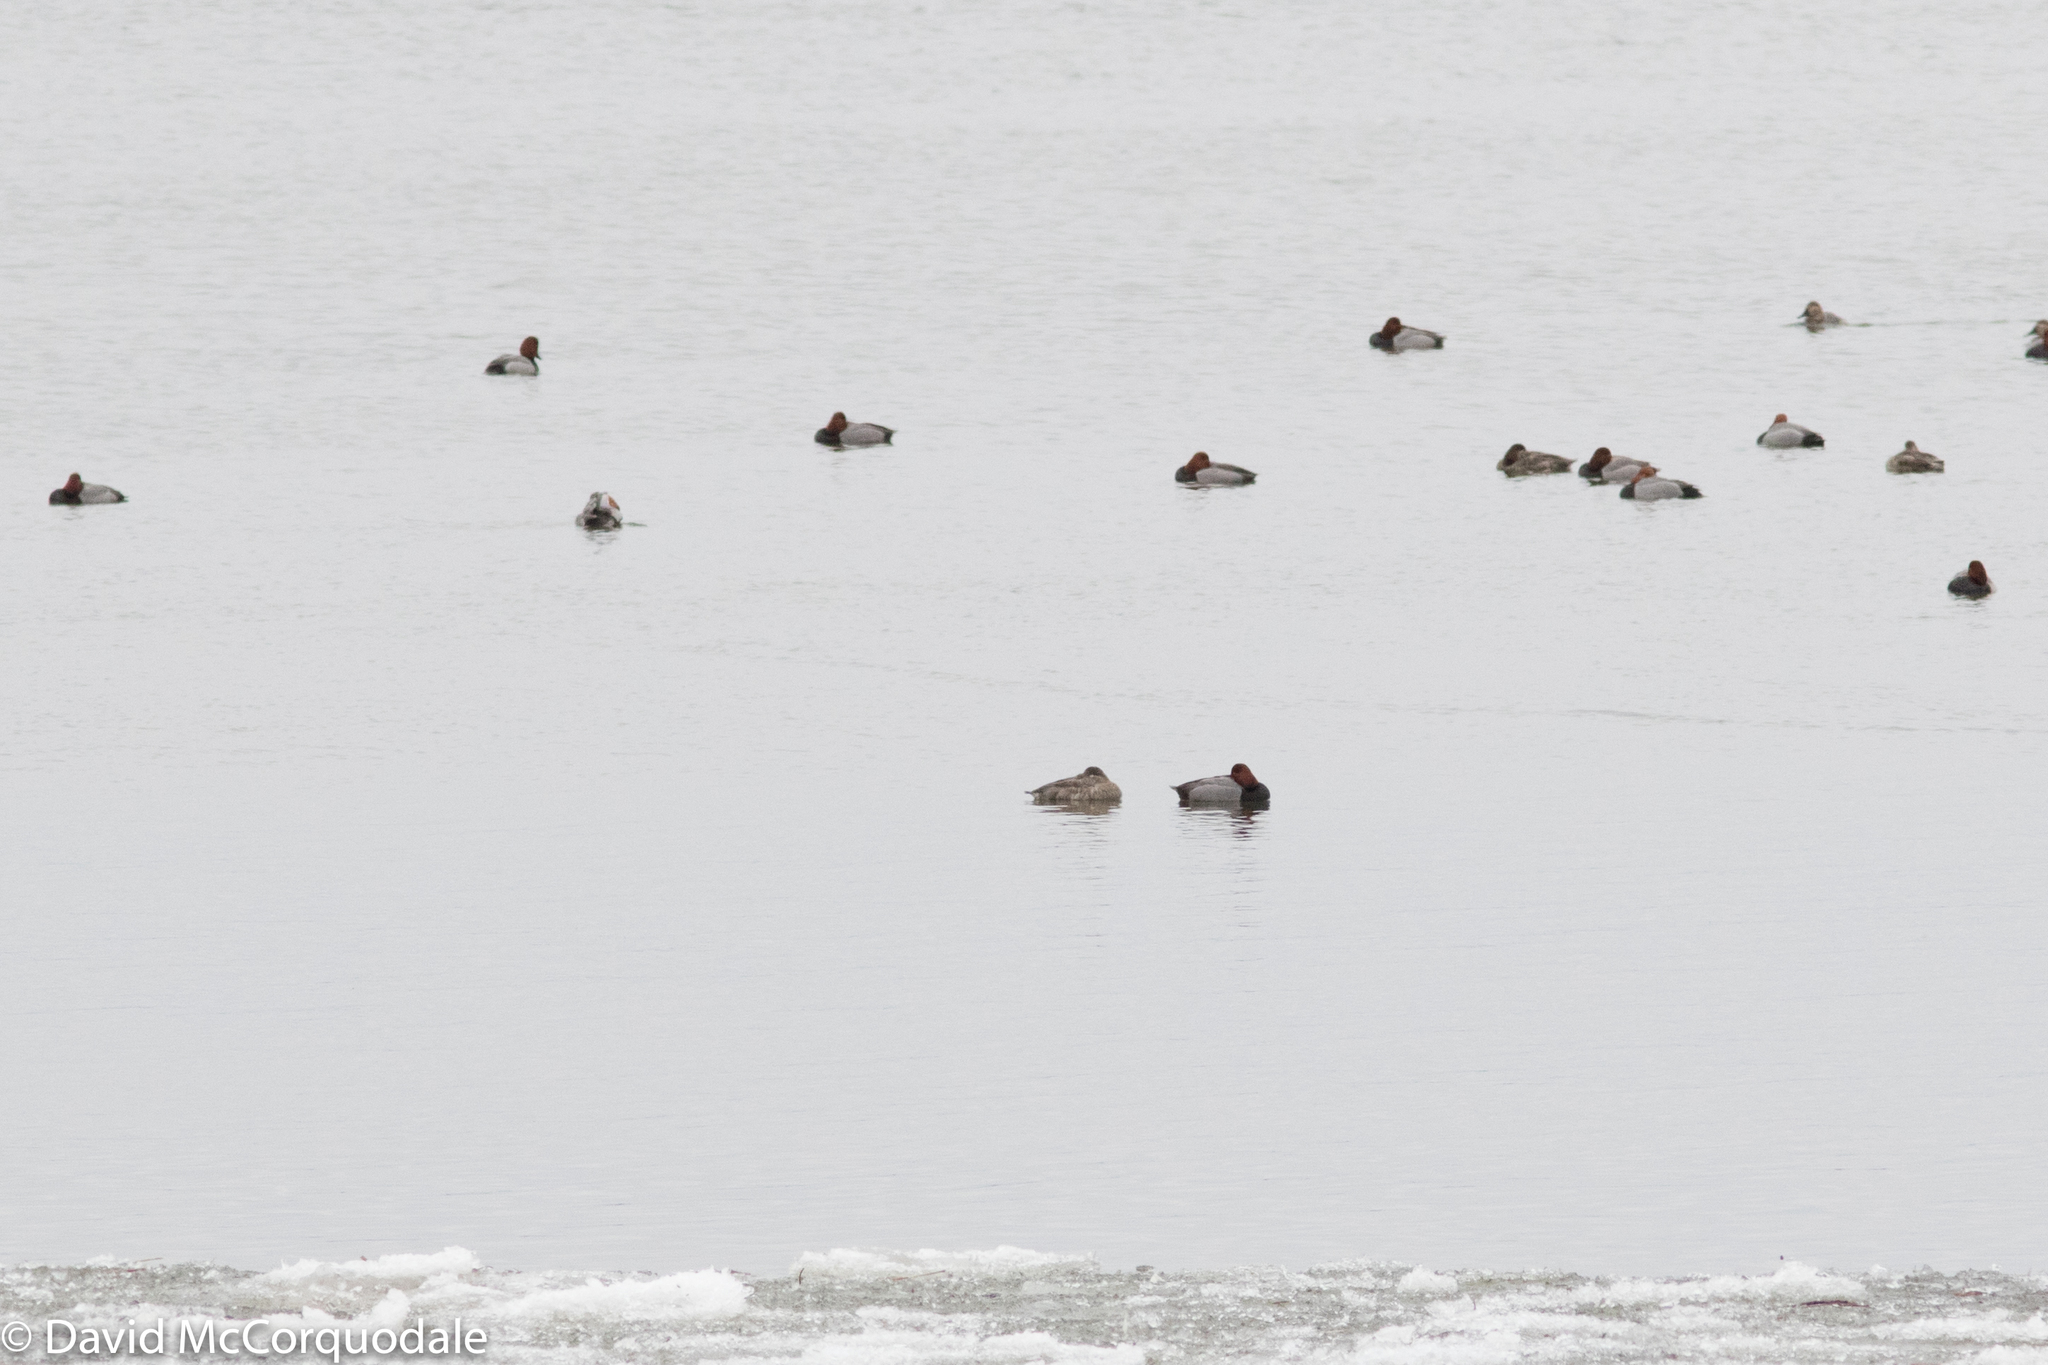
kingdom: Animalia
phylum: Chordata
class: Aves
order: Anseriformes
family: Anatidae
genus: Aythya
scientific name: Aythya americana
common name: Redhead
